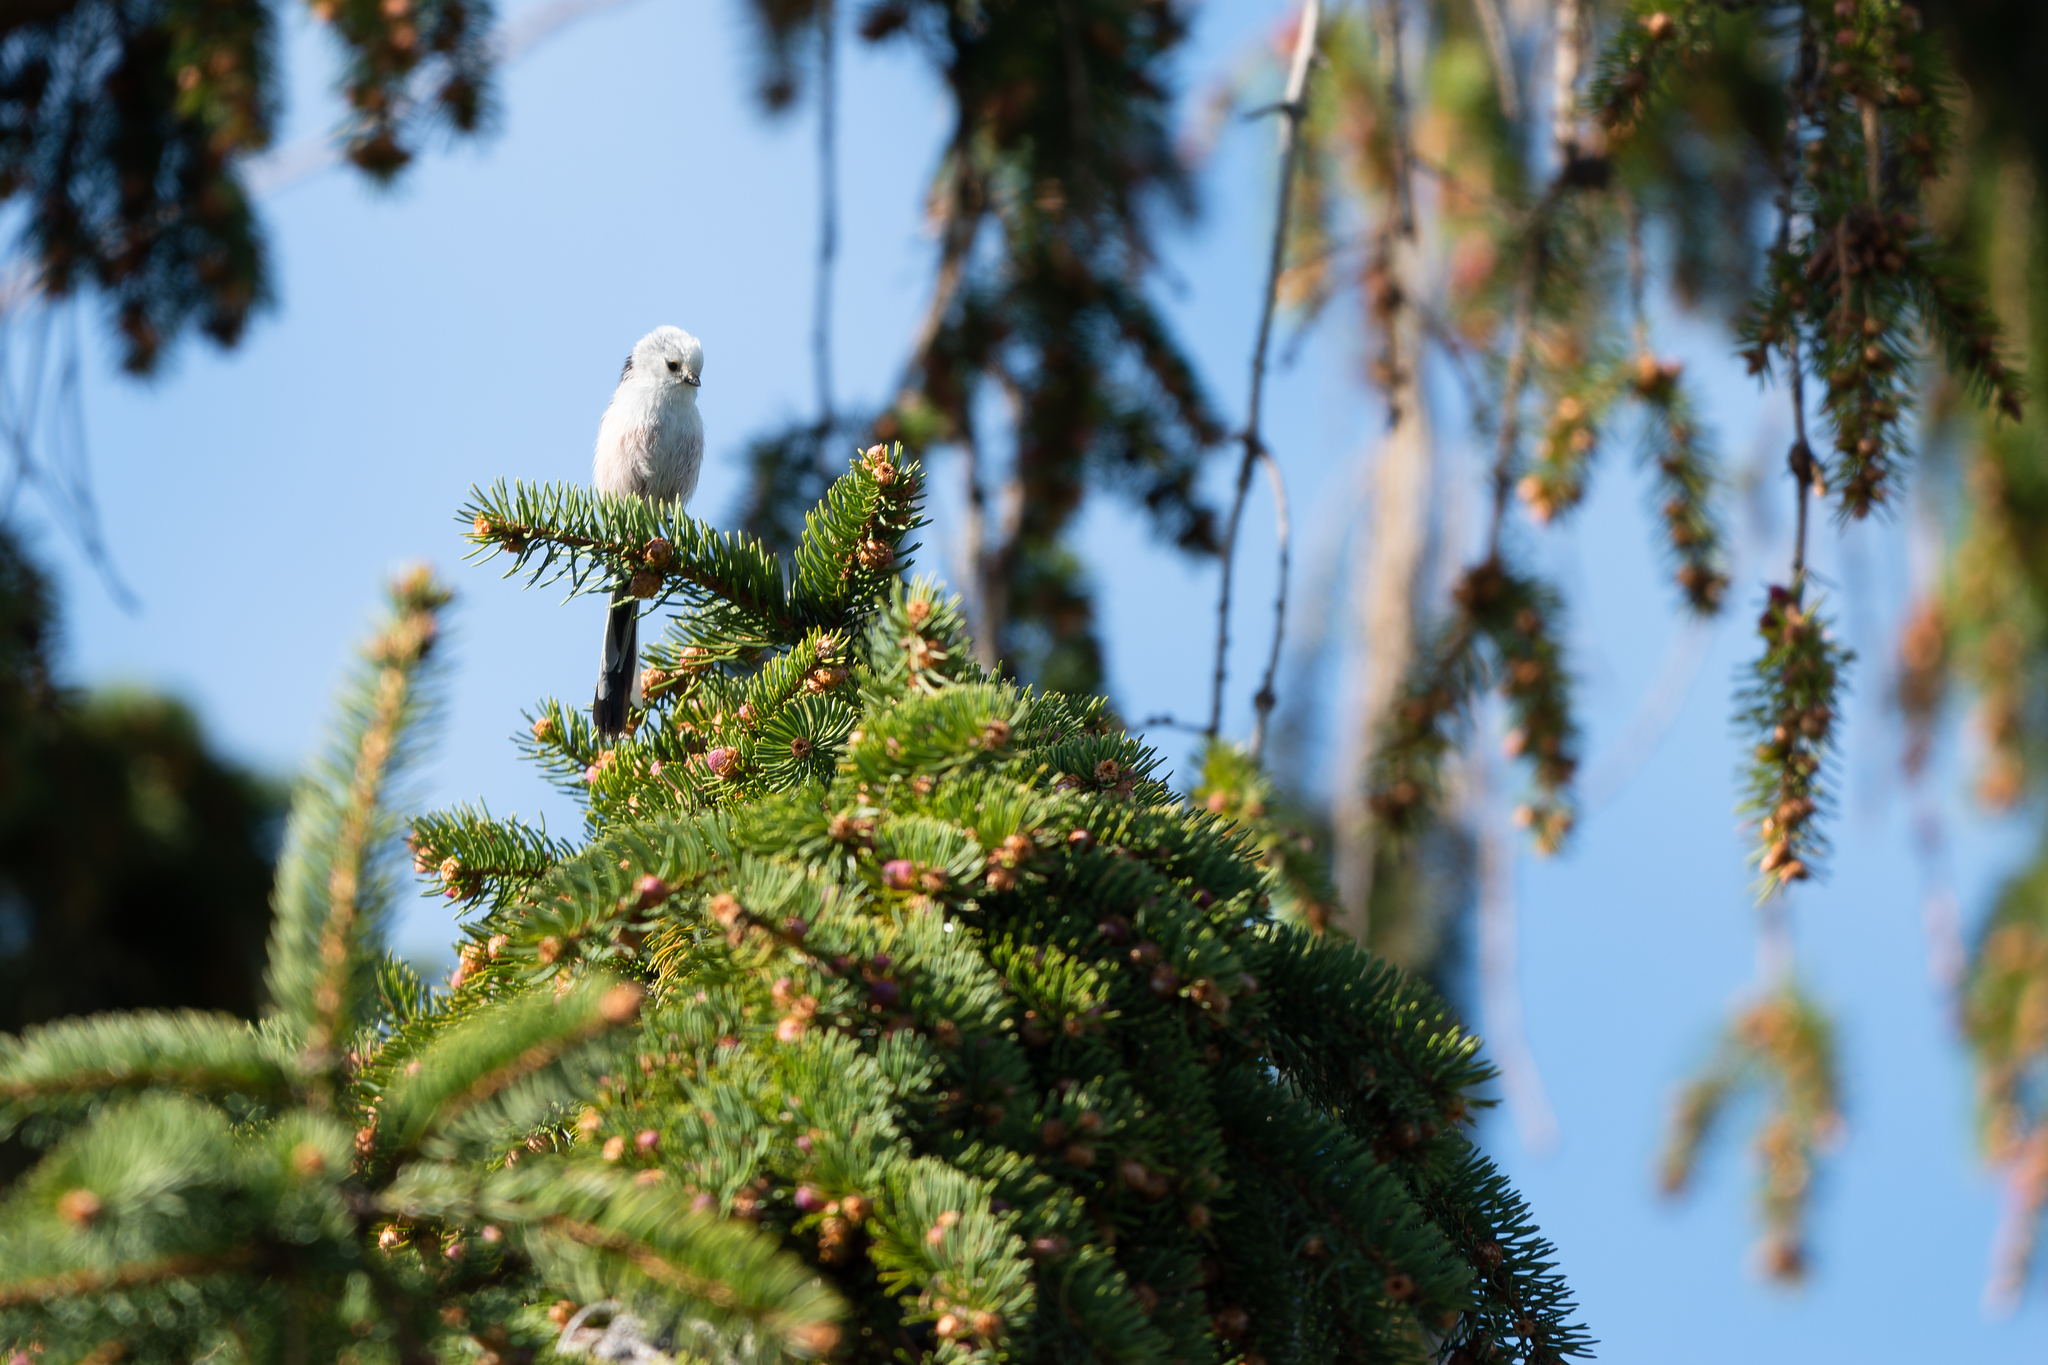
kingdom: Animalia
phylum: Chordata
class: Aves
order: Passeriformes
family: Aegithalidae
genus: Aegithalos
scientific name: Aegithalos caudatus
